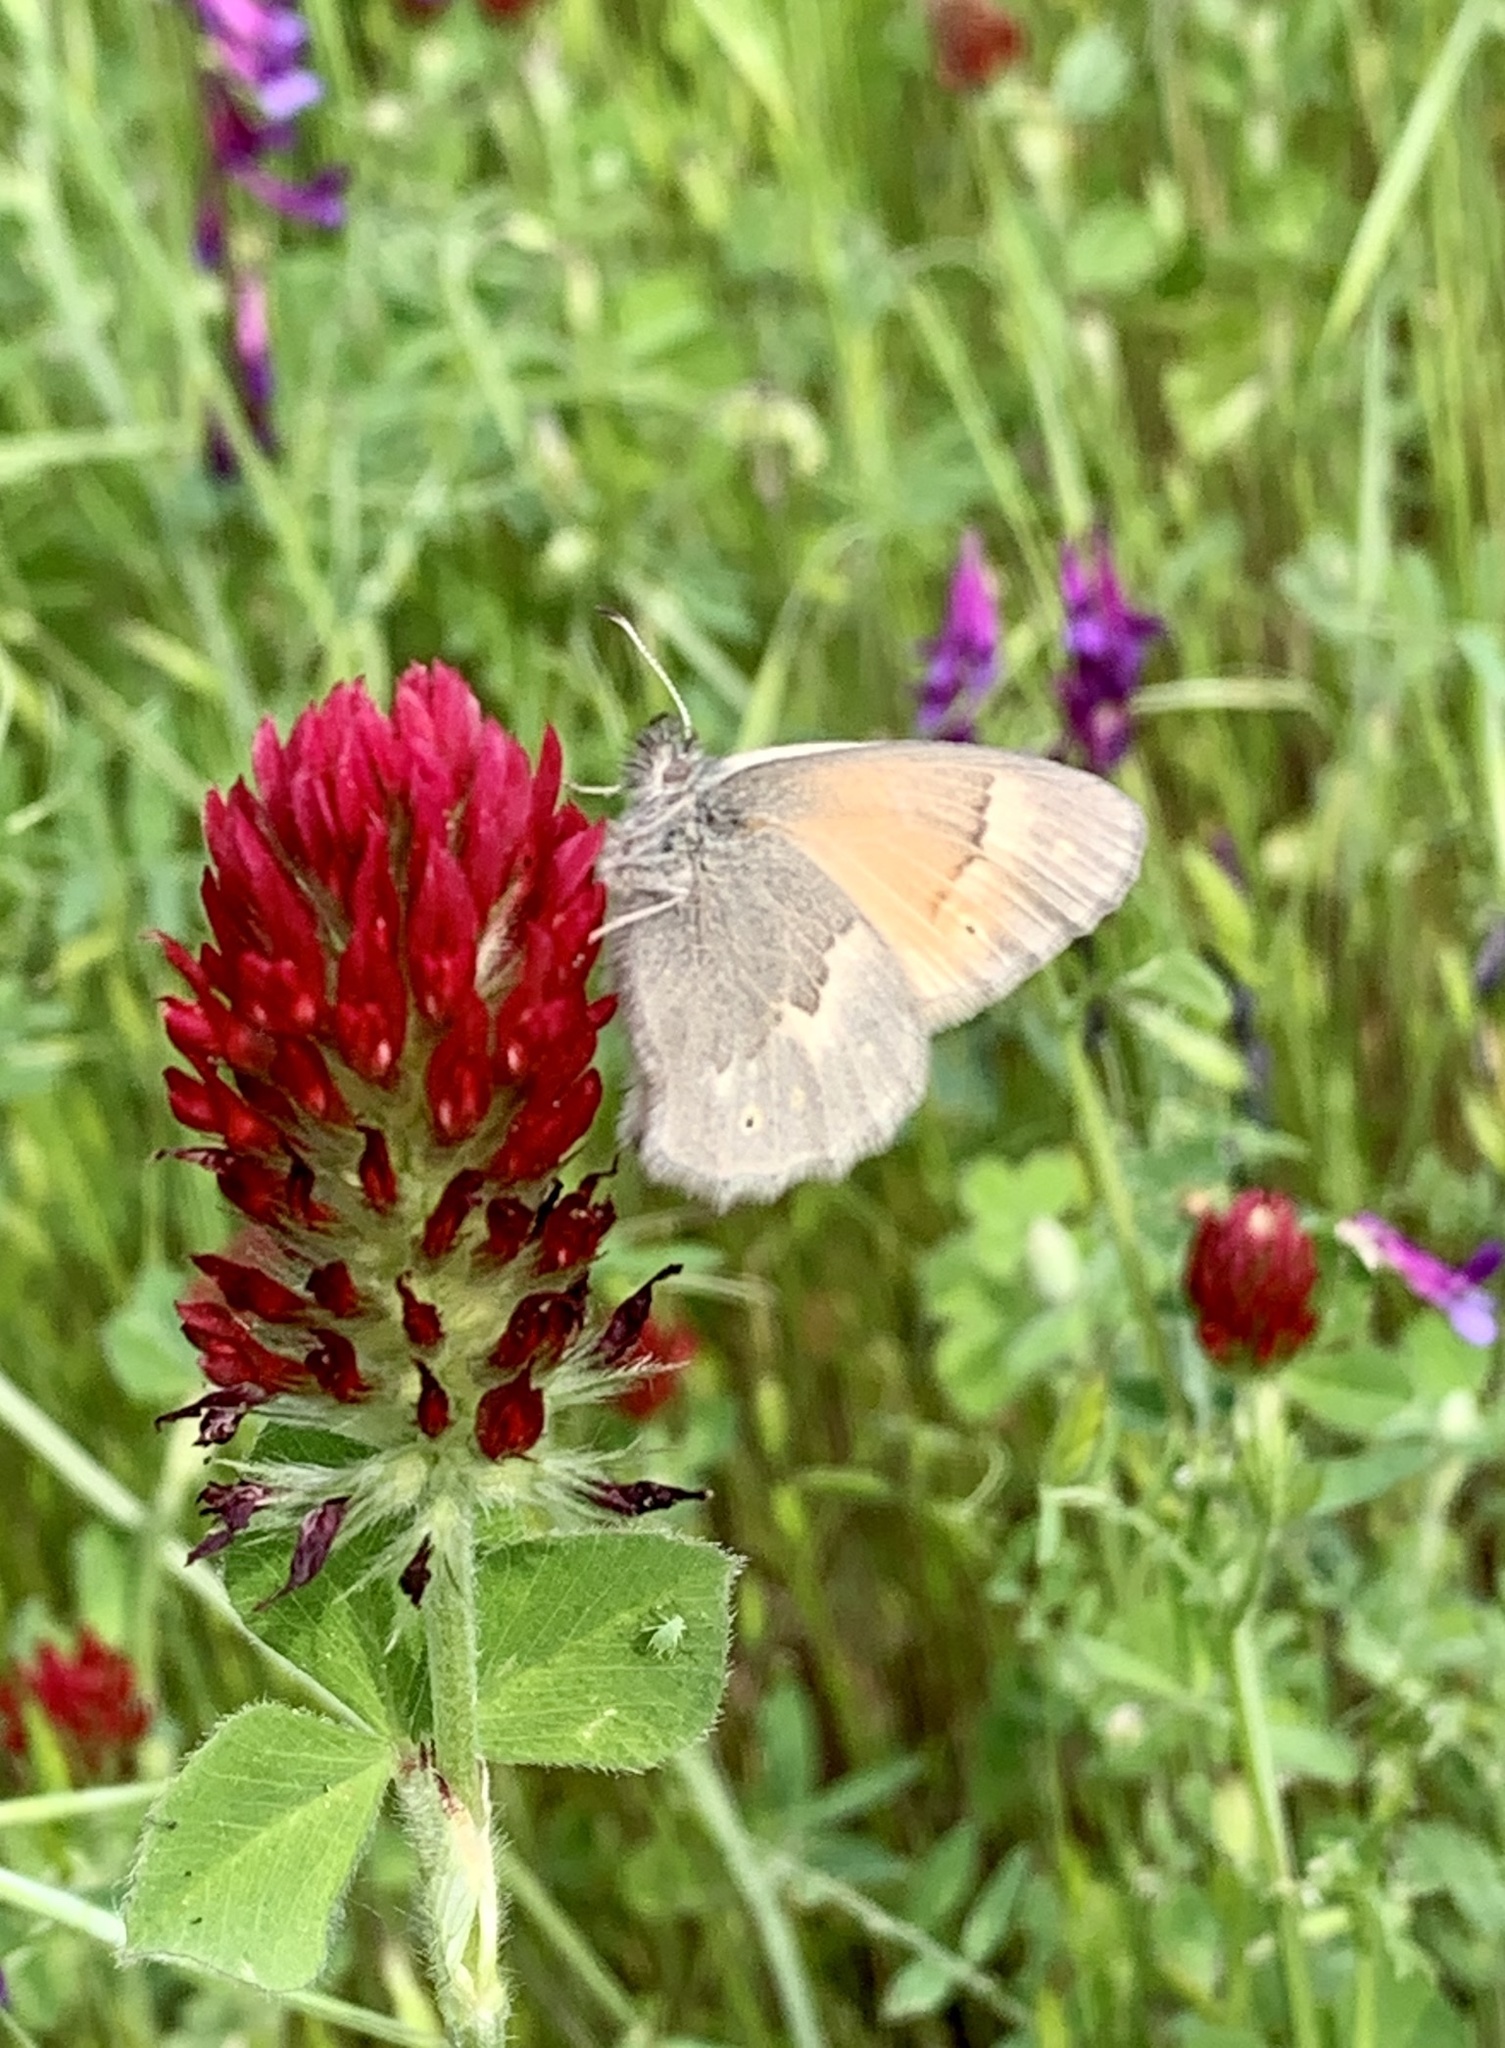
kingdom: Animalia
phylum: Arthropoda
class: Insecta
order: Lepidoptera
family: Nymphalidae
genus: Coenonympha
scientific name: Coenonympha california
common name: Common ringlet
